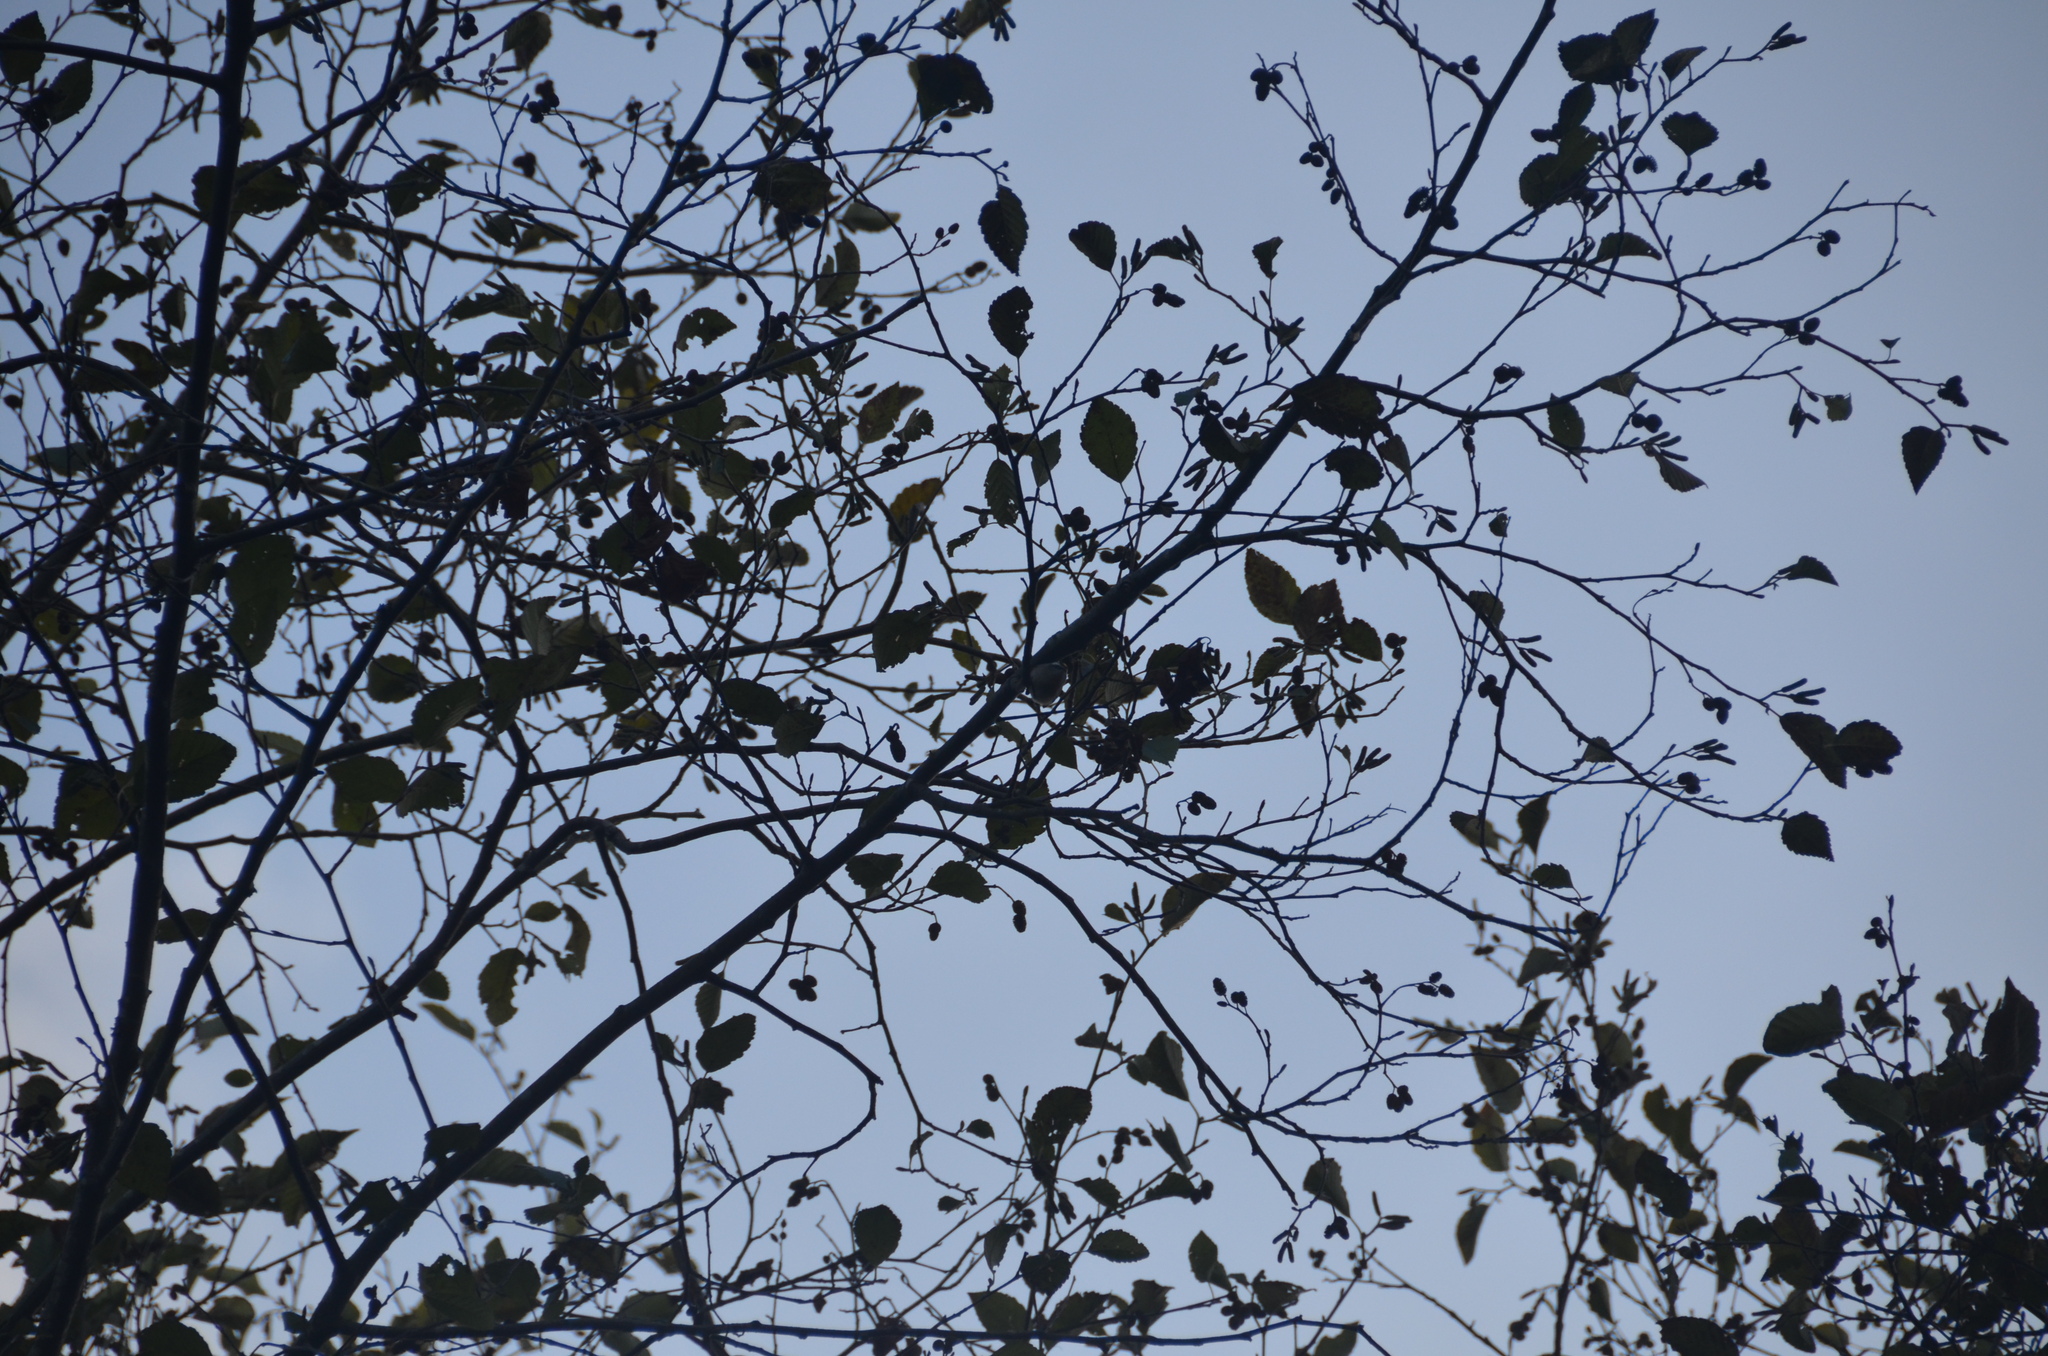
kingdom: Animalia
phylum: Chordata
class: Aves
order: Passeriformes
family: Regulidae
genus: Regulus
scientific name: Regulus satrapa
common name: Golden-crowned kinglet
